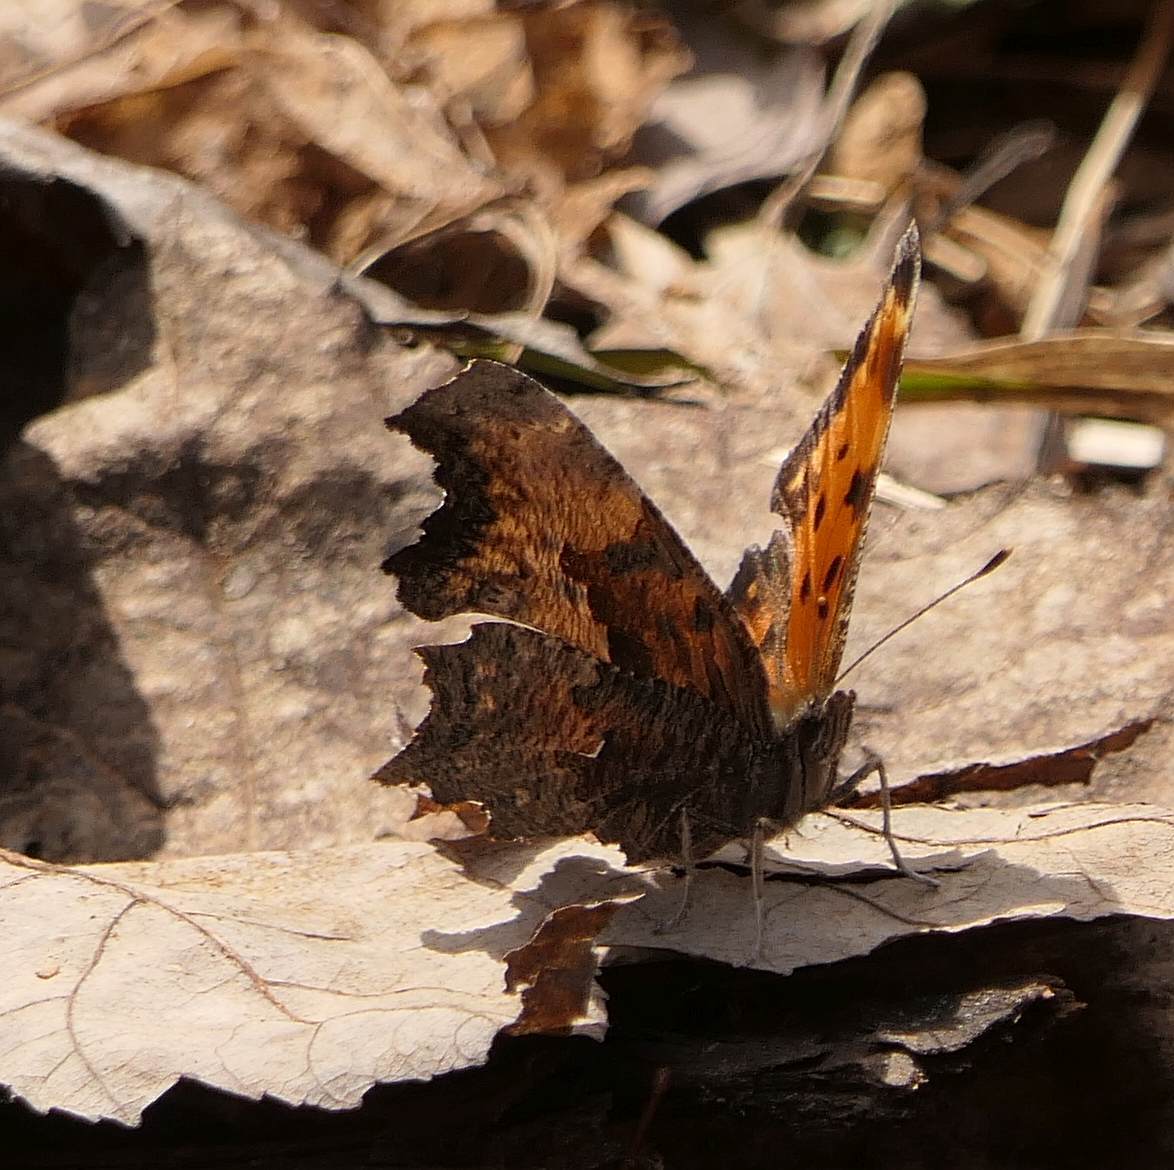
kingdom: Animalia
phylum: Arthropoda
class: Insecta
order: Lepidoptera
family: Nymphalidae
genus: Polygonia
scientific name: Polygonia progne
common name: Gray comma
